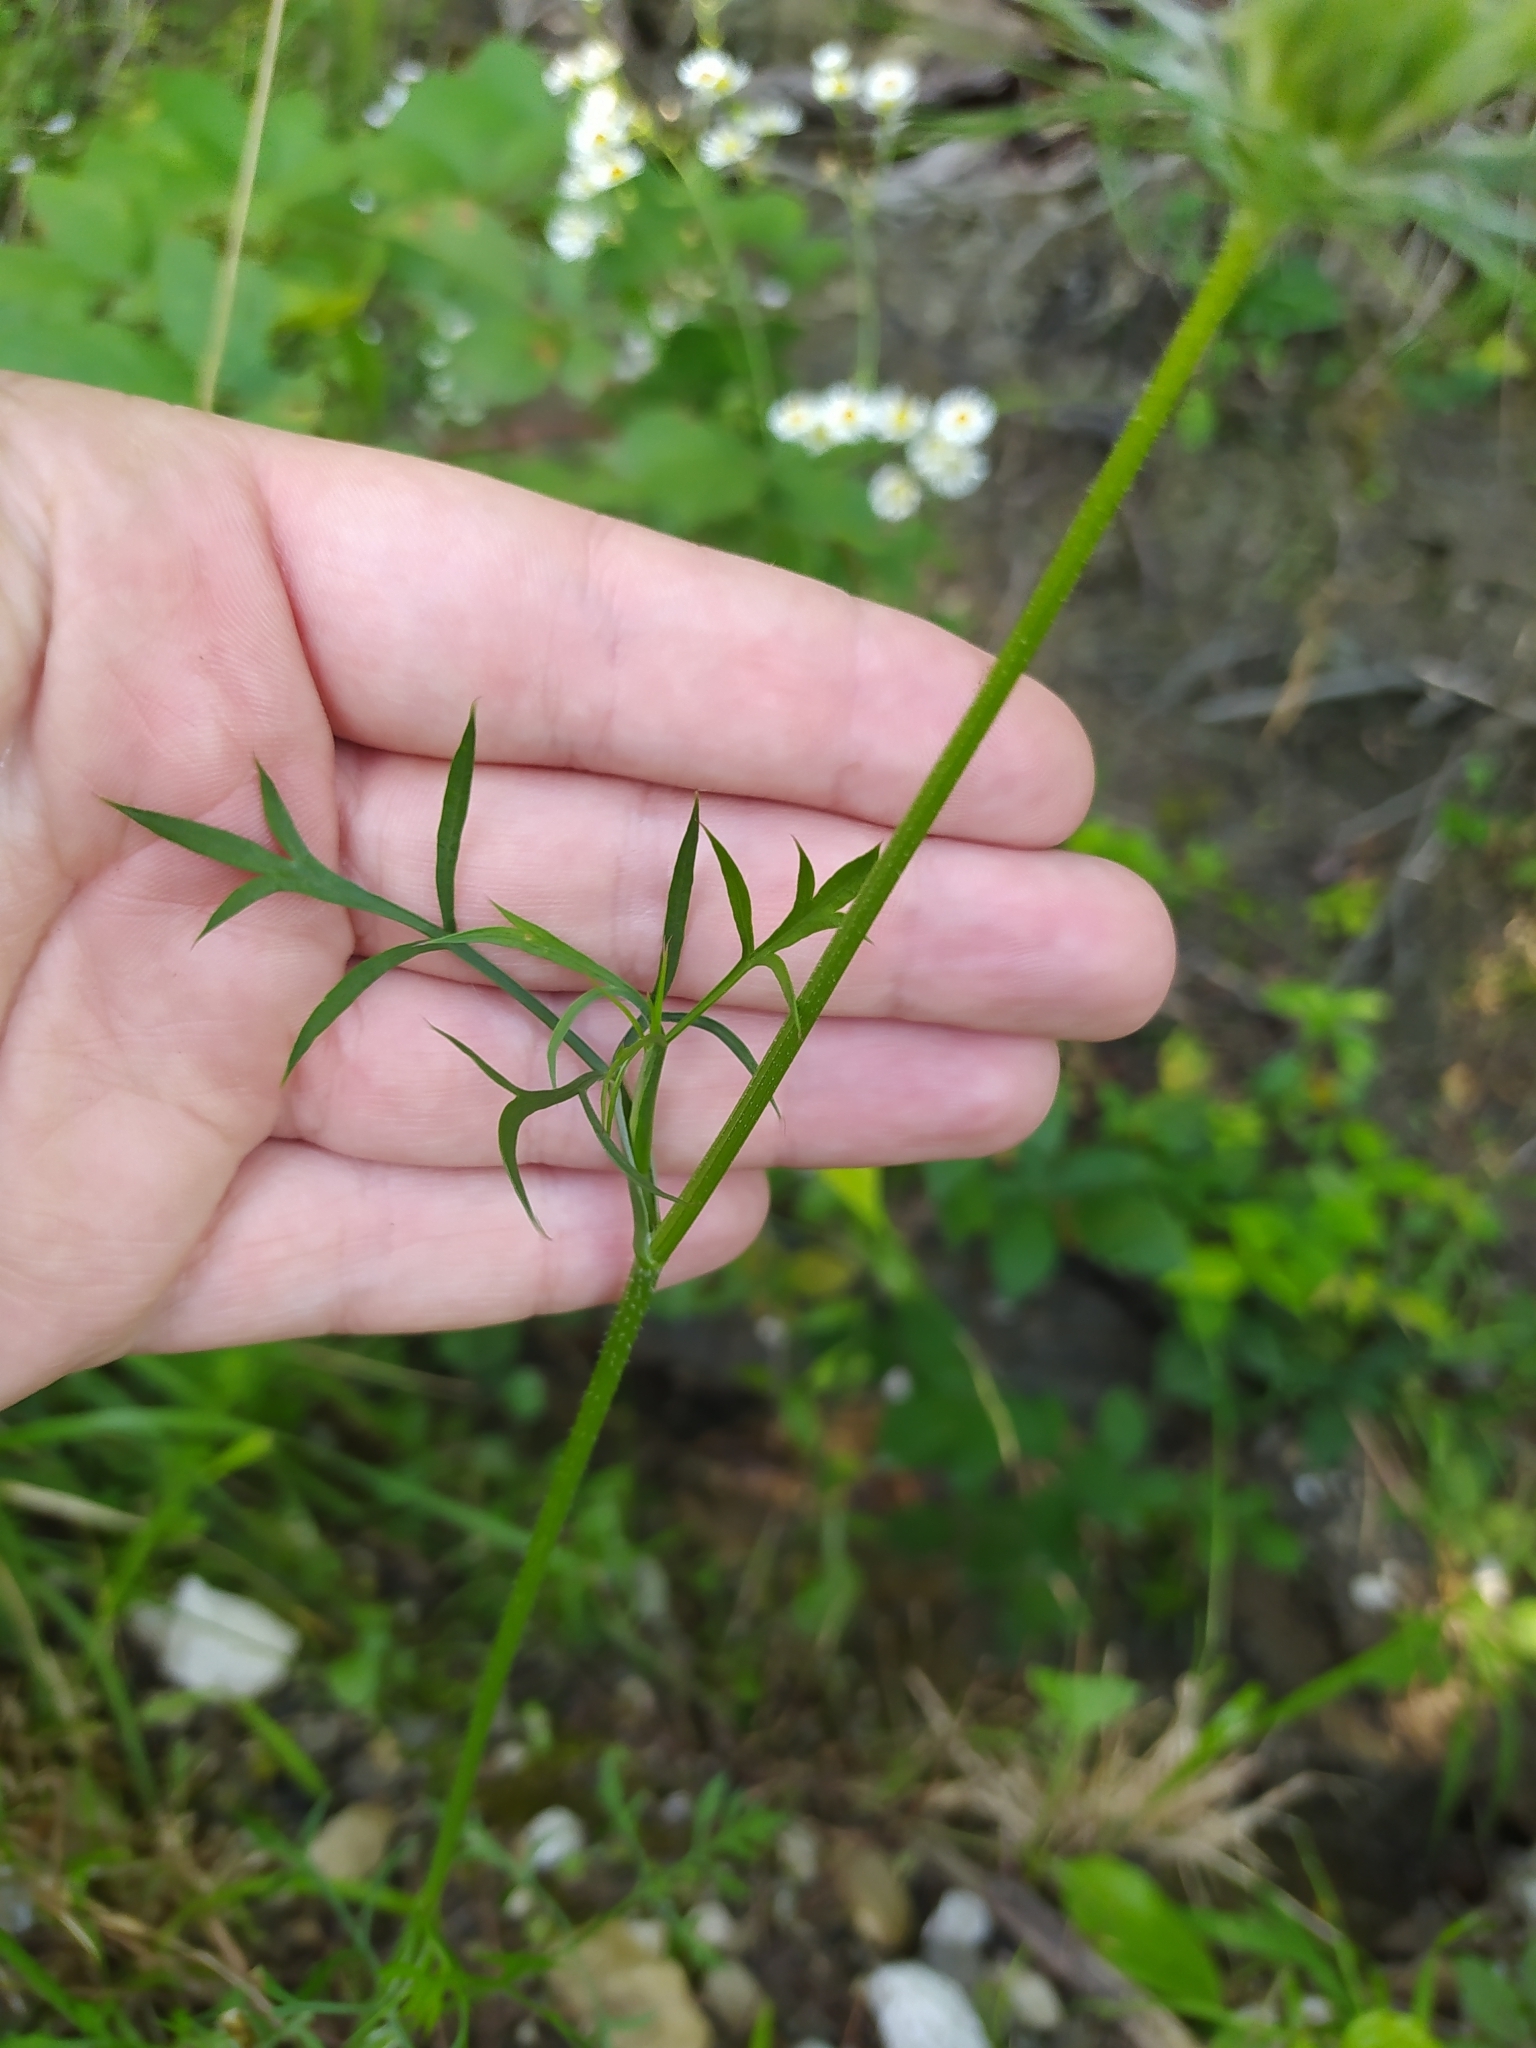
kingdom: Plantae
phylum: Tracheophyta
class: Magnoliopsida
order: Apiales
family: Apiaceae
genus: Daucus
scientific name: Daucus carota
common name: Wild carrot
